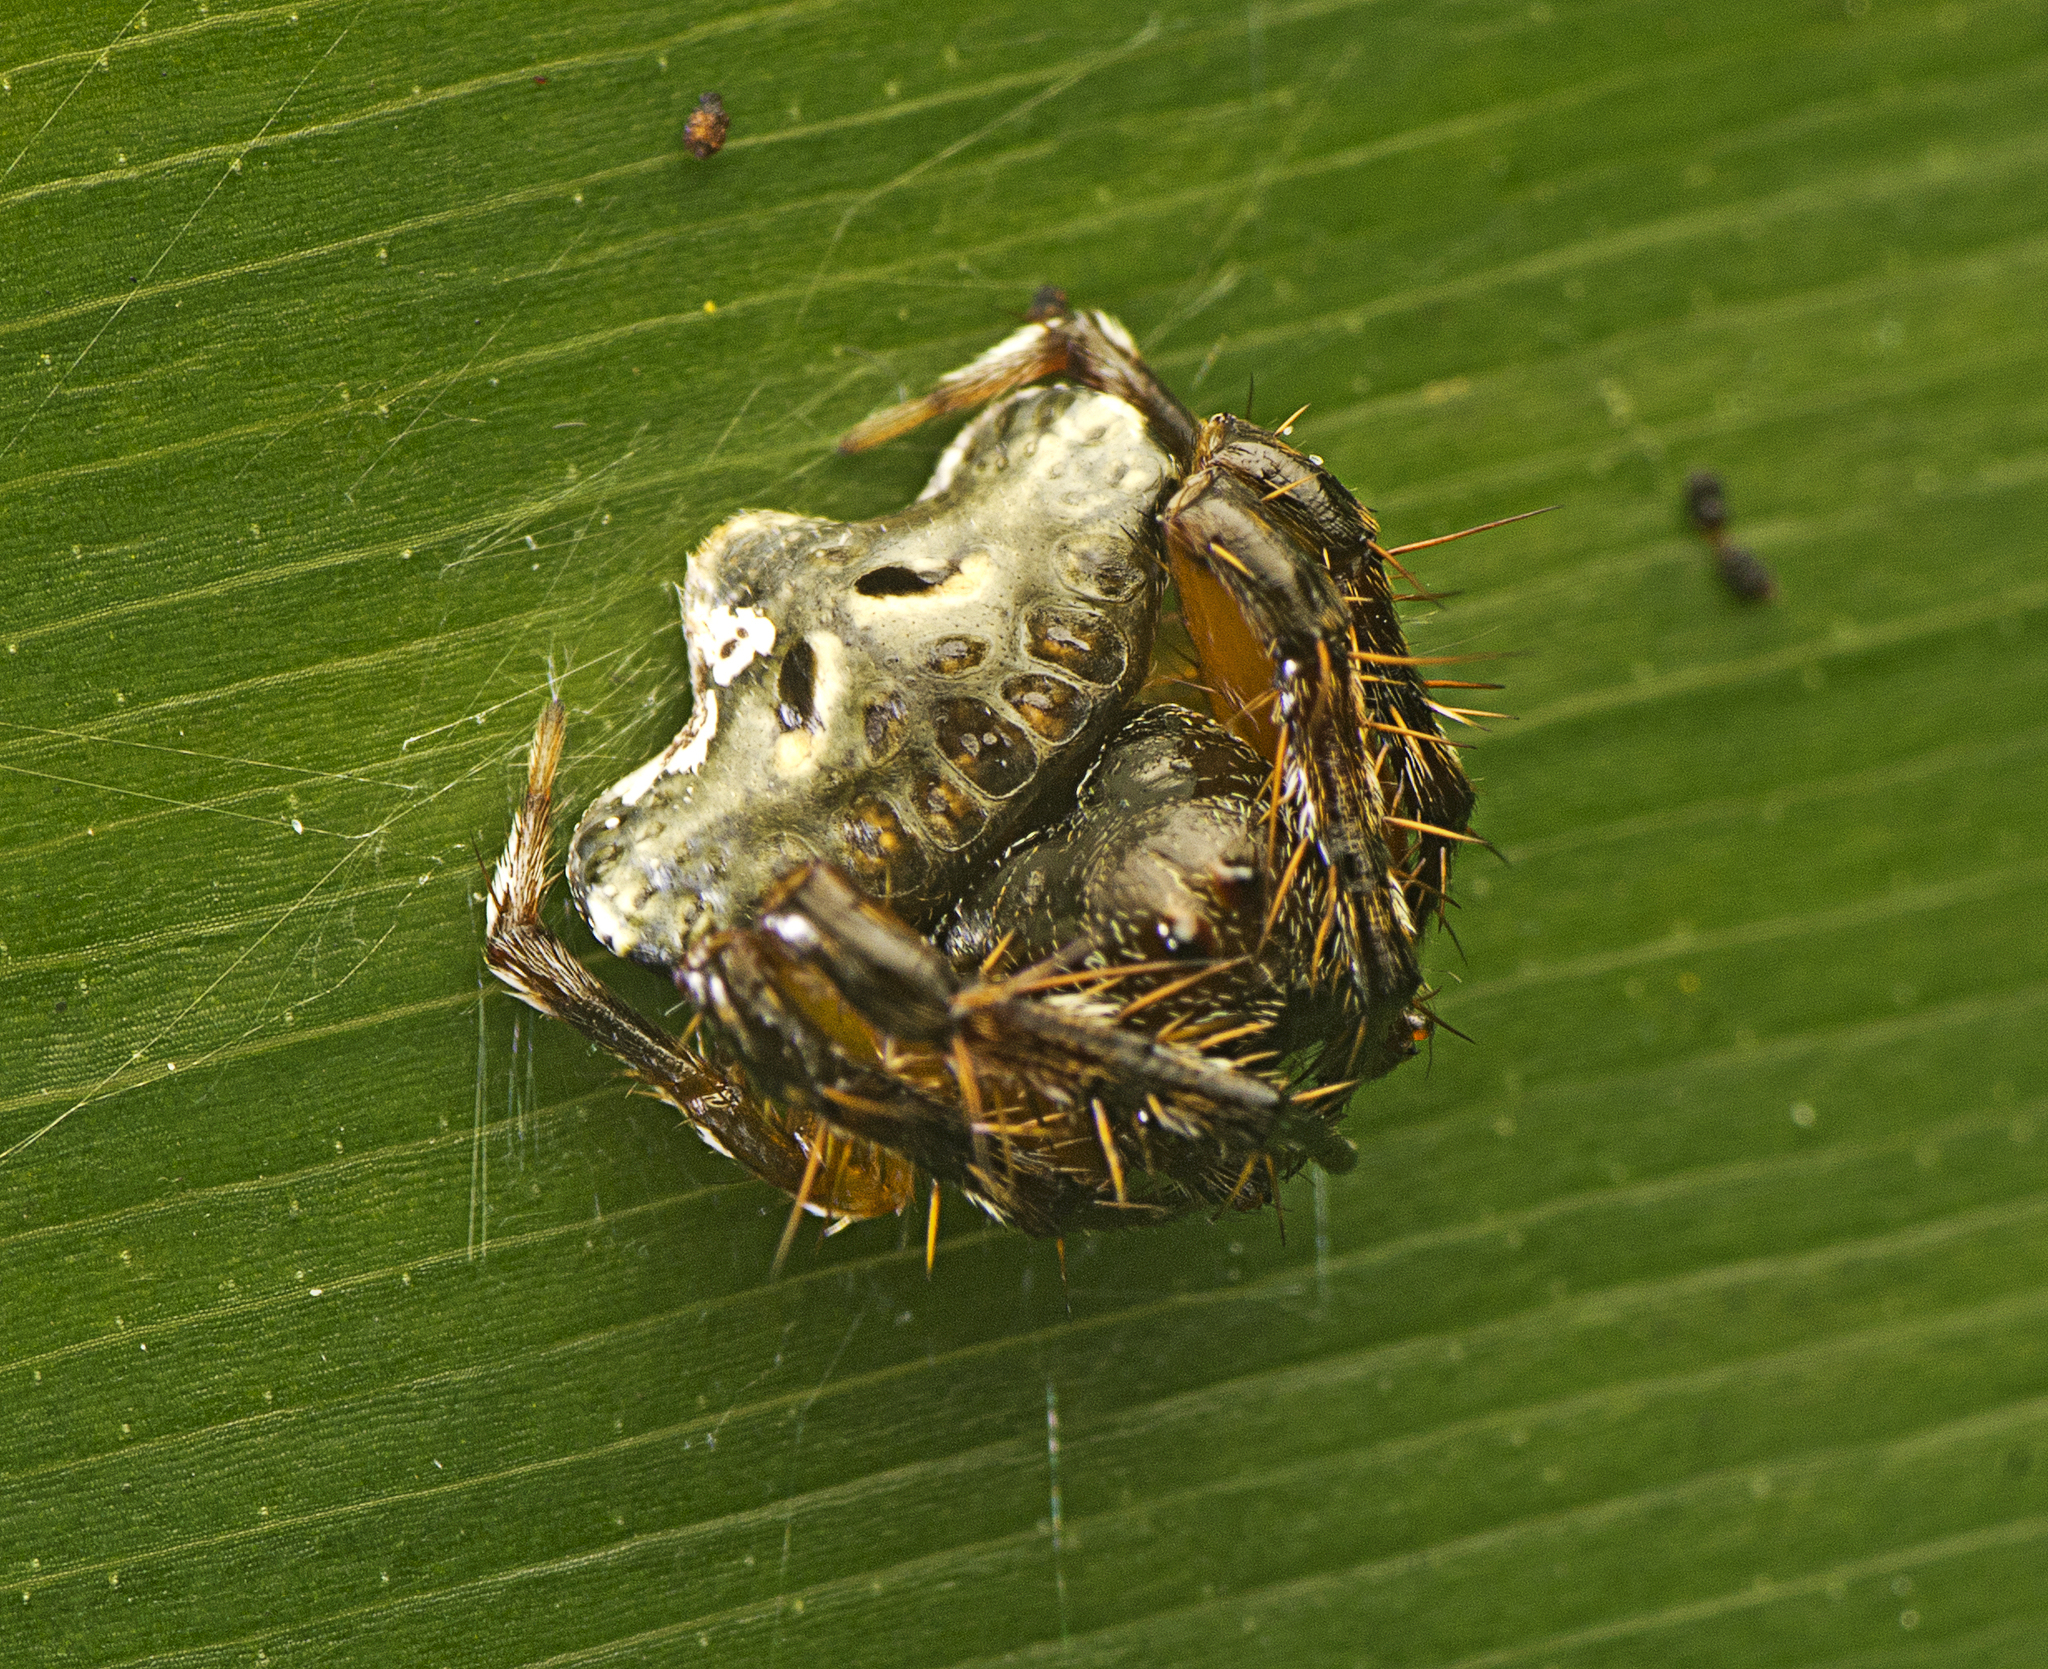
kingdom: Animalia
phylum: Arthropoda
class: Arachnida
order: Araneae
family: Arkyidae
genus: Arkys
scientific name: Arkys speechleyi
